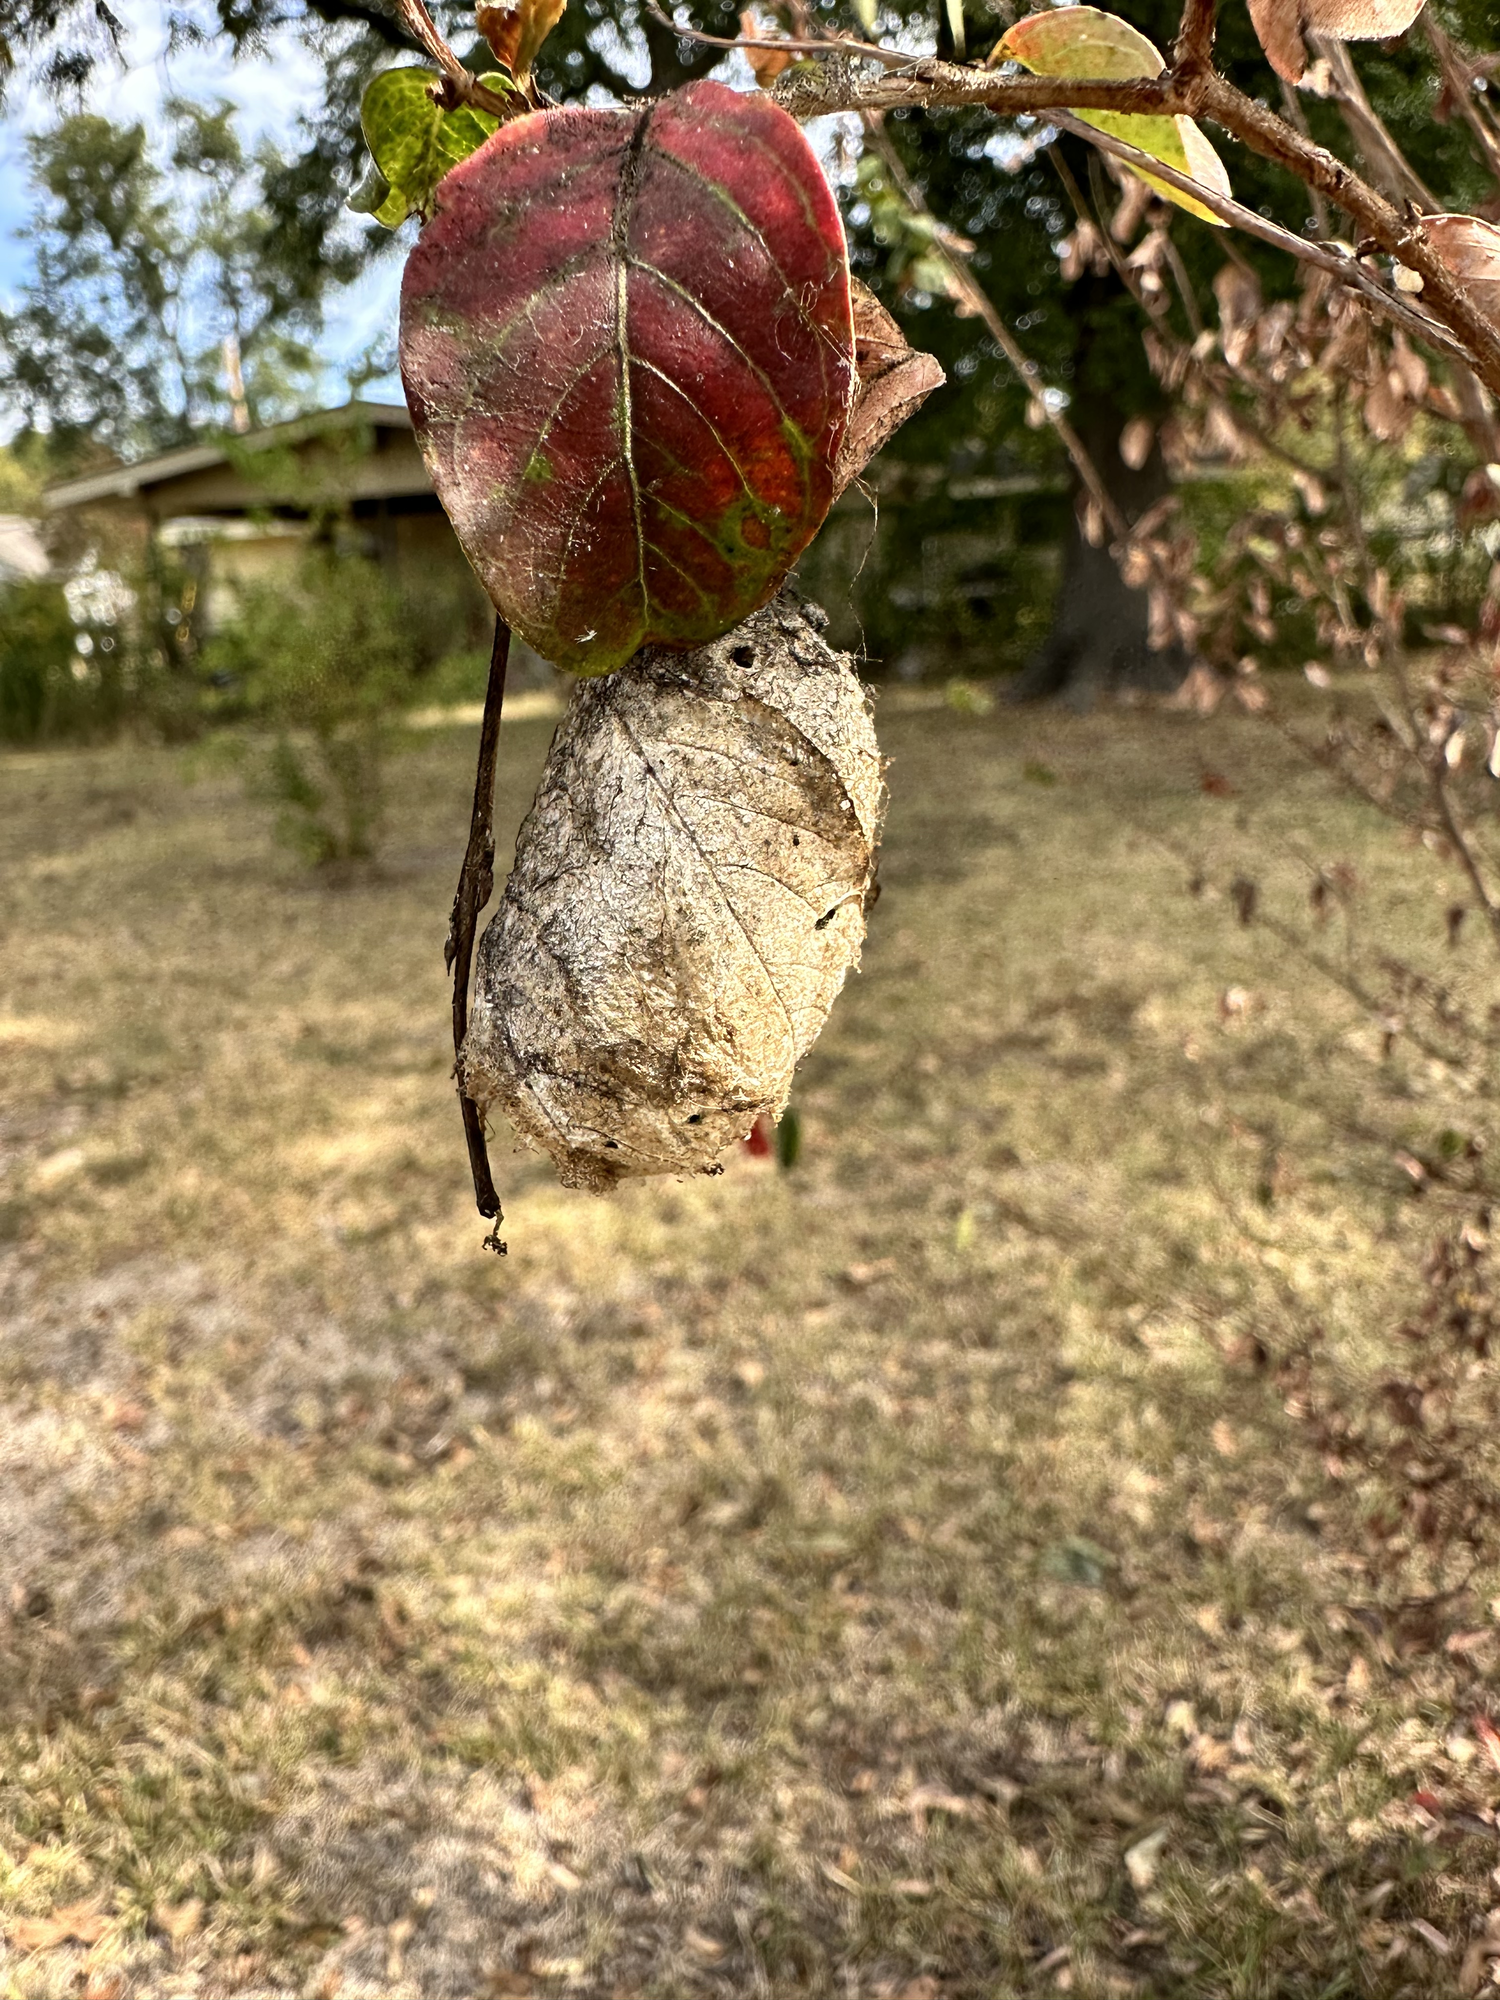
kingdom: Animalia
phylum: Arthropoda
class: Insecta
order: Lepidoptera
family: Saturniidae
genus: Antheraea
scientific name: Antheraea polyphemus
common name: Polyphemus moth
